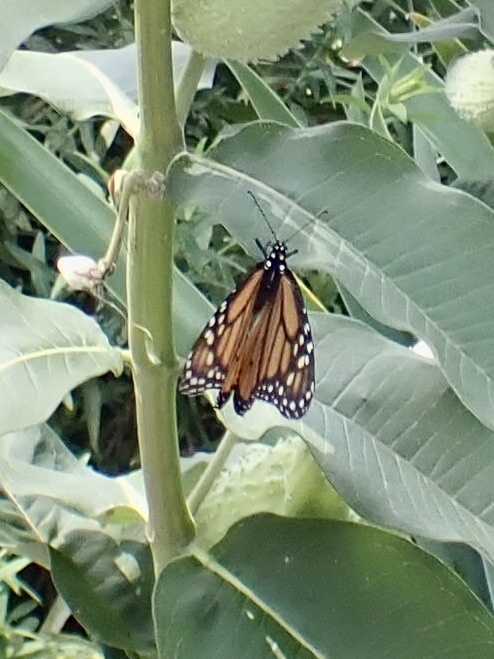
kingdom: Animalia
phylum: Arthropoda
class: Insecta
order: Lepidoptera
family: Nymphalidae
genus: Danaus
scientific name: Danaus plexippus
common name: Monarch
